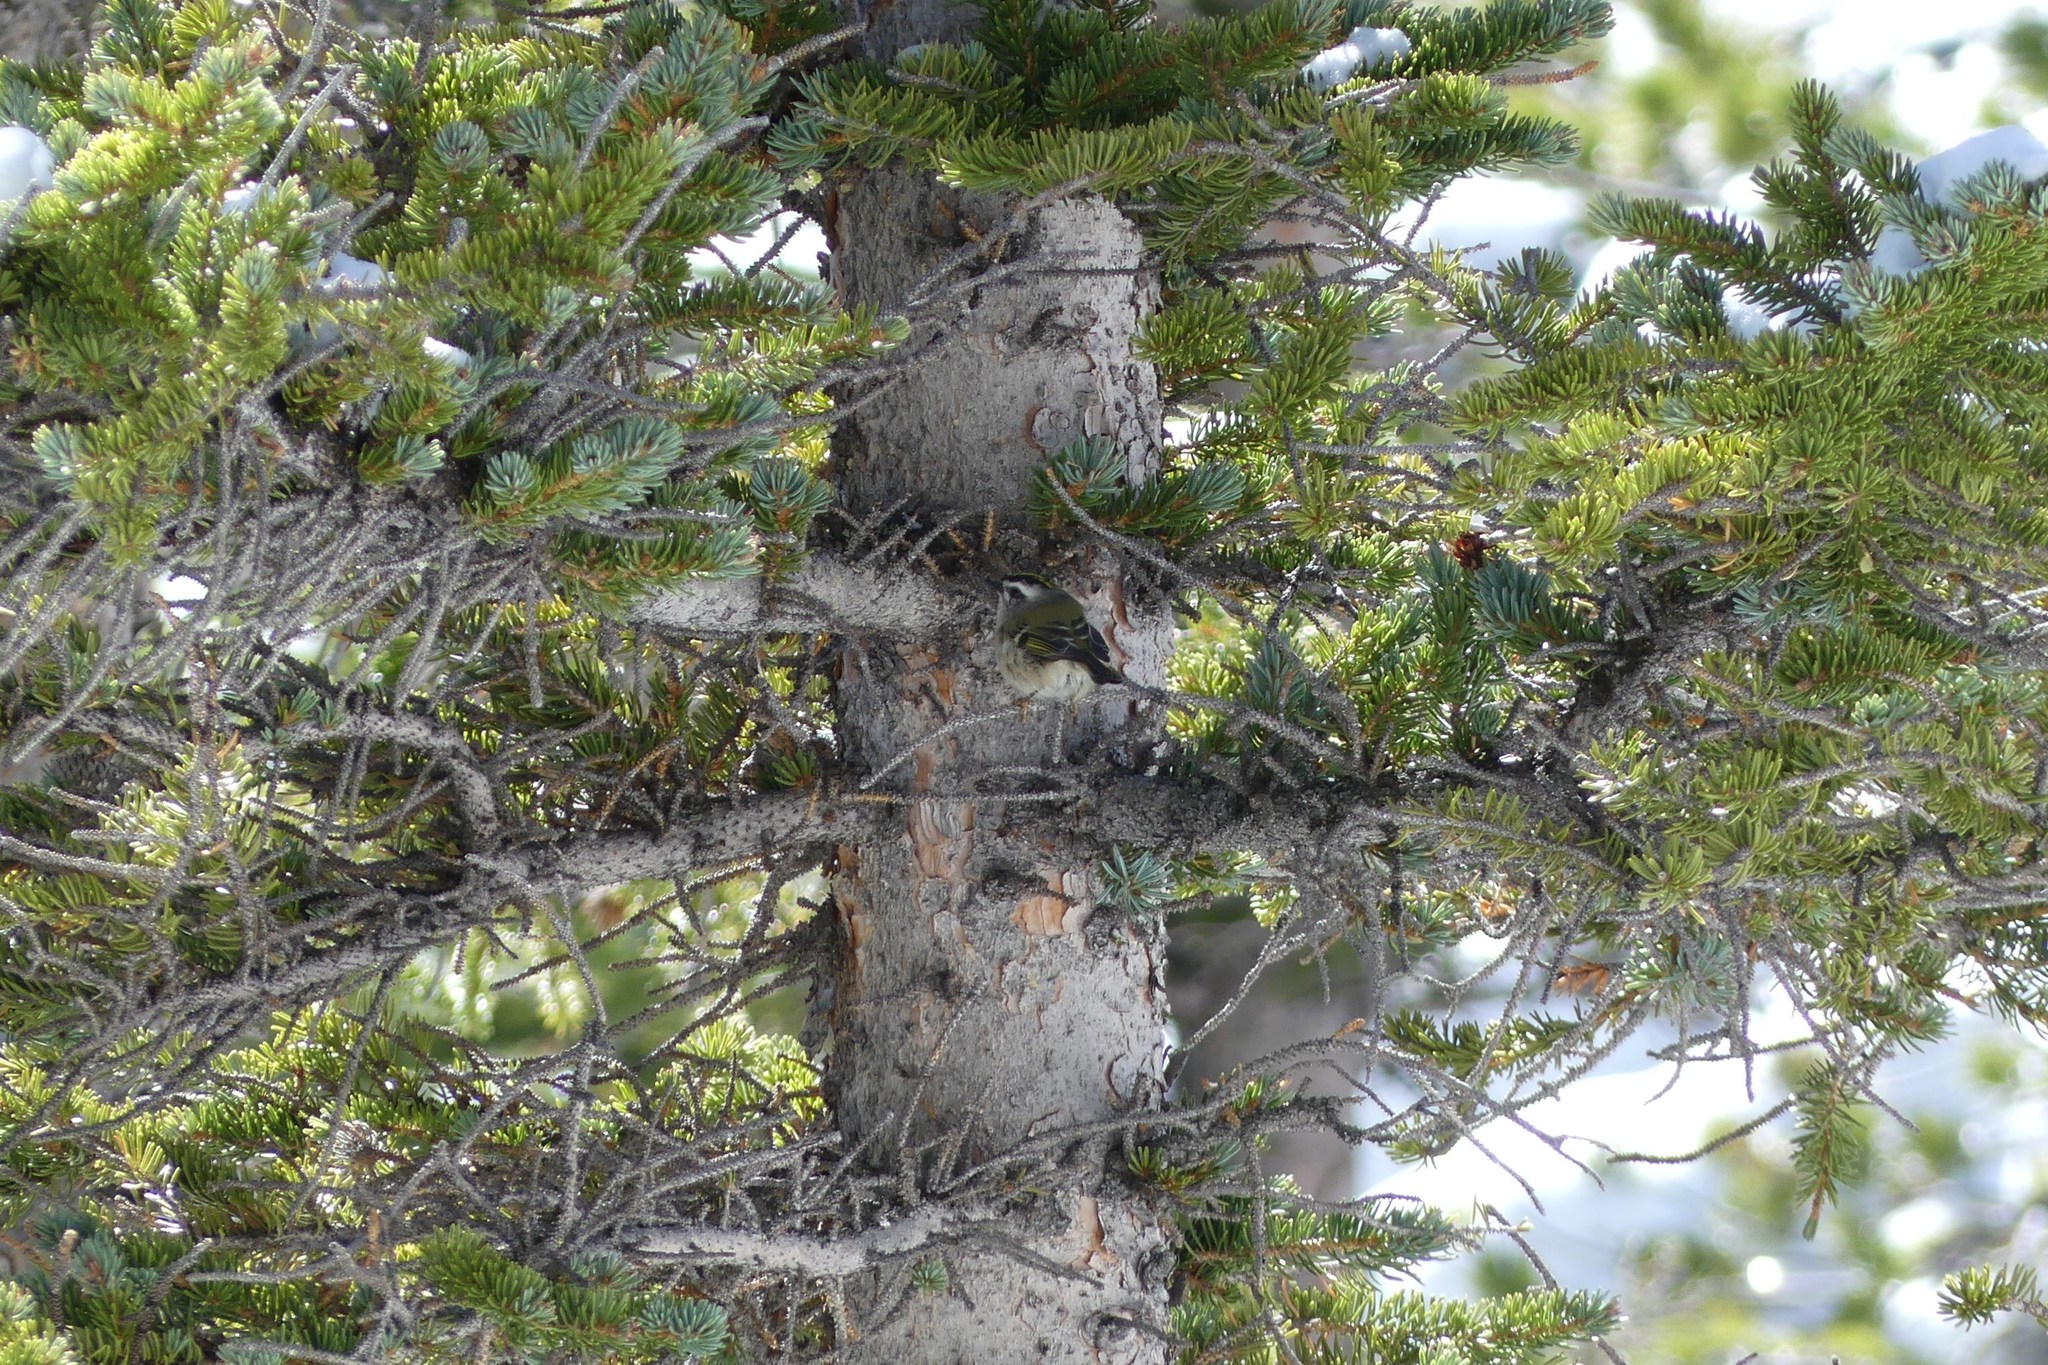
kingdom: Animalia
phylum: Chordata
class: Aves
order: Passeriformes
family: Regulidae
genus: Regulus
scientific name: Regulus satrapa
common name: Golden-crowned kinglet
